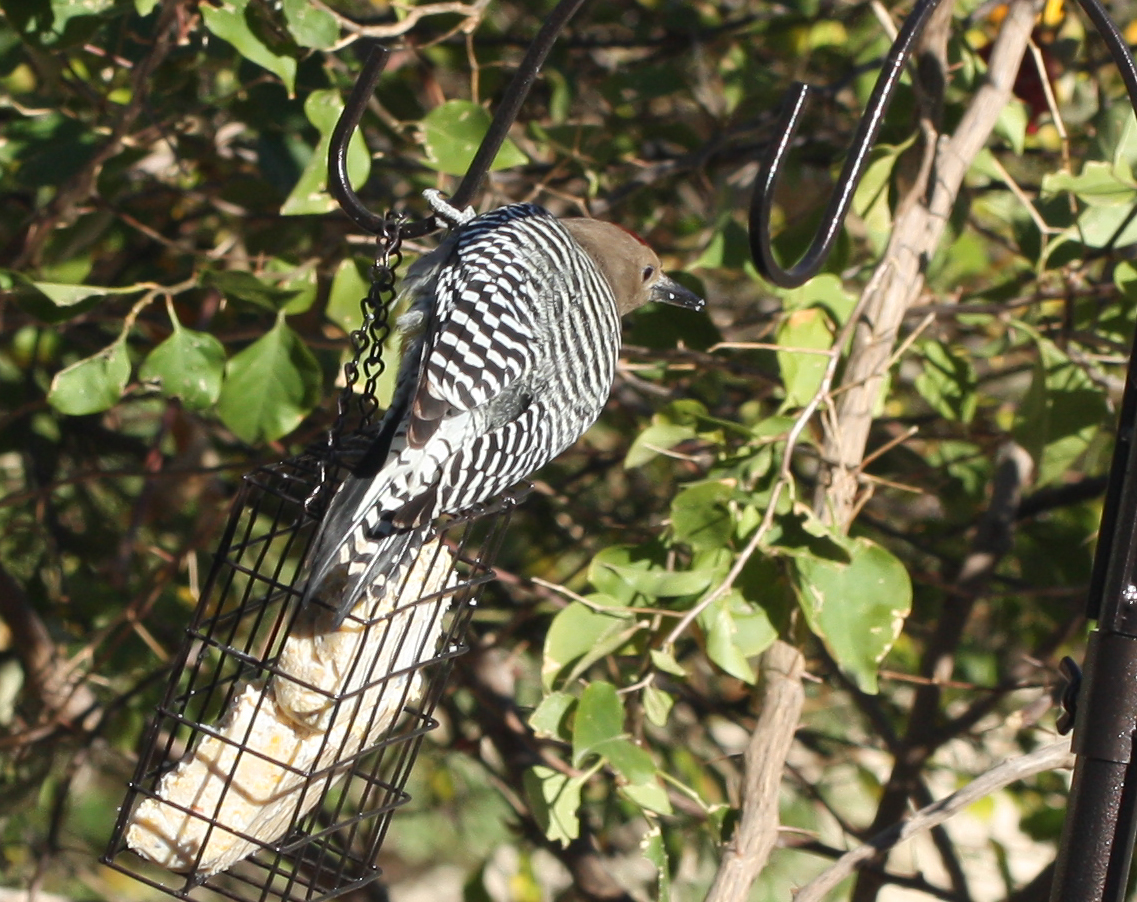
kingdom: Animalia
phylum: Chordata
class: Aves
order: Piciformes
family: Picidae
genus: Melanerpes
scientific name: Melanerpes uropygialis
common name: Gila woodpecker
